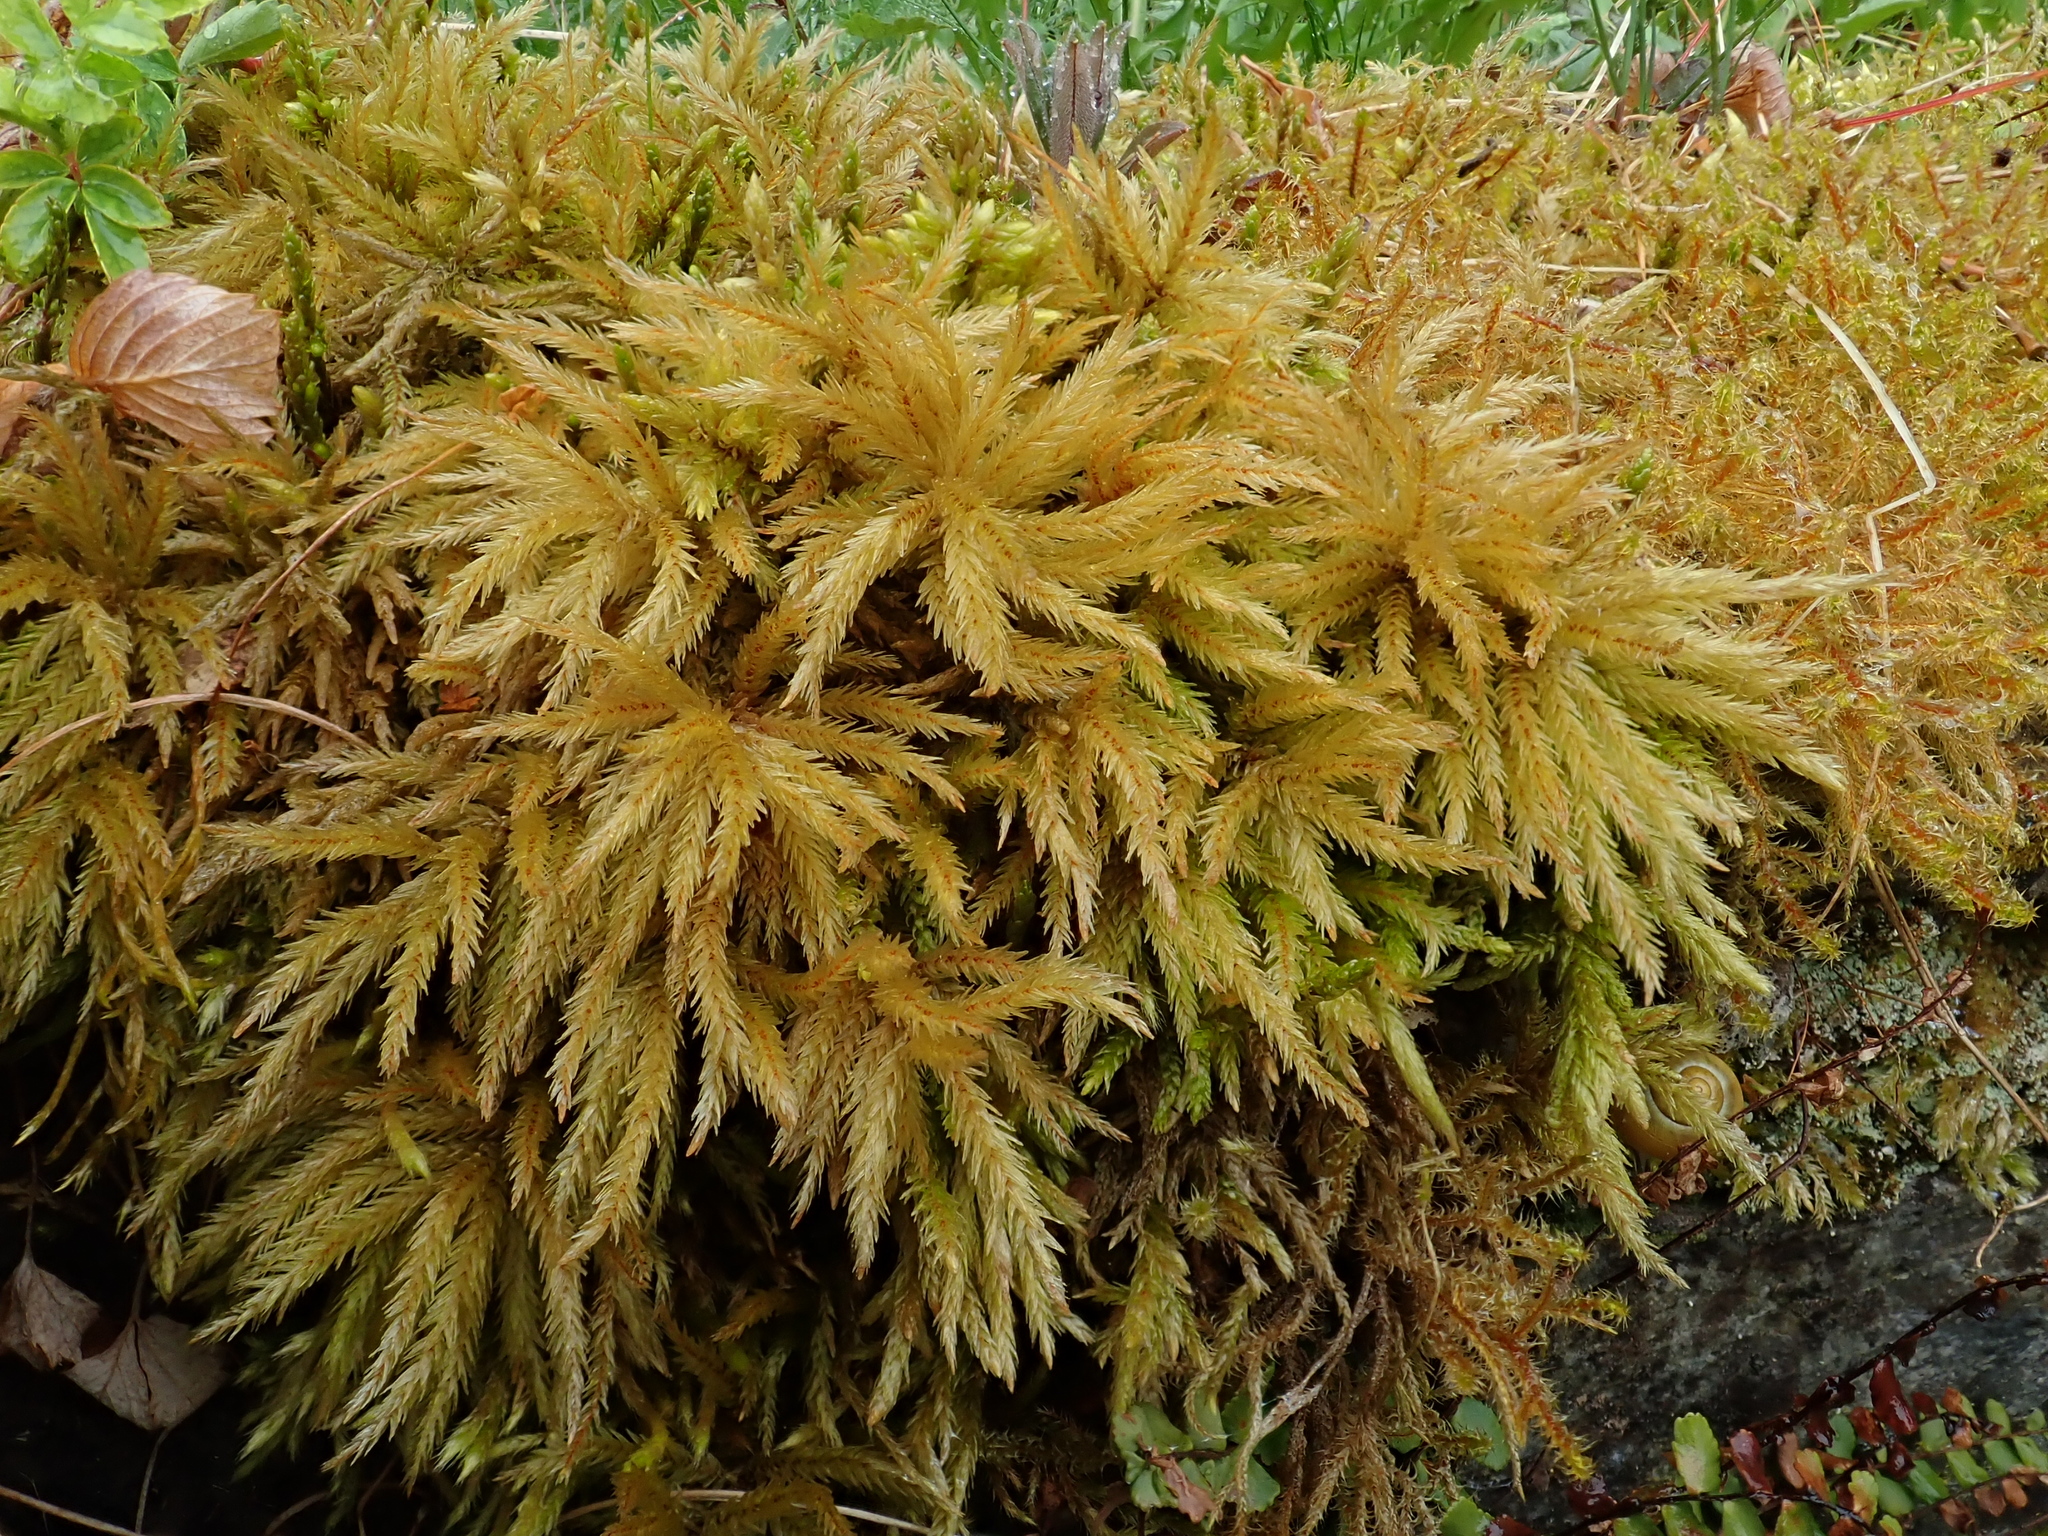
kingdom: Plantae
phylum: Bryophyta
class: Bryopsida
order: Hypnales
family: Climaciaceae
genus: Climacium
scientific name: Climacium dendroides
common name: Northern tree moss
